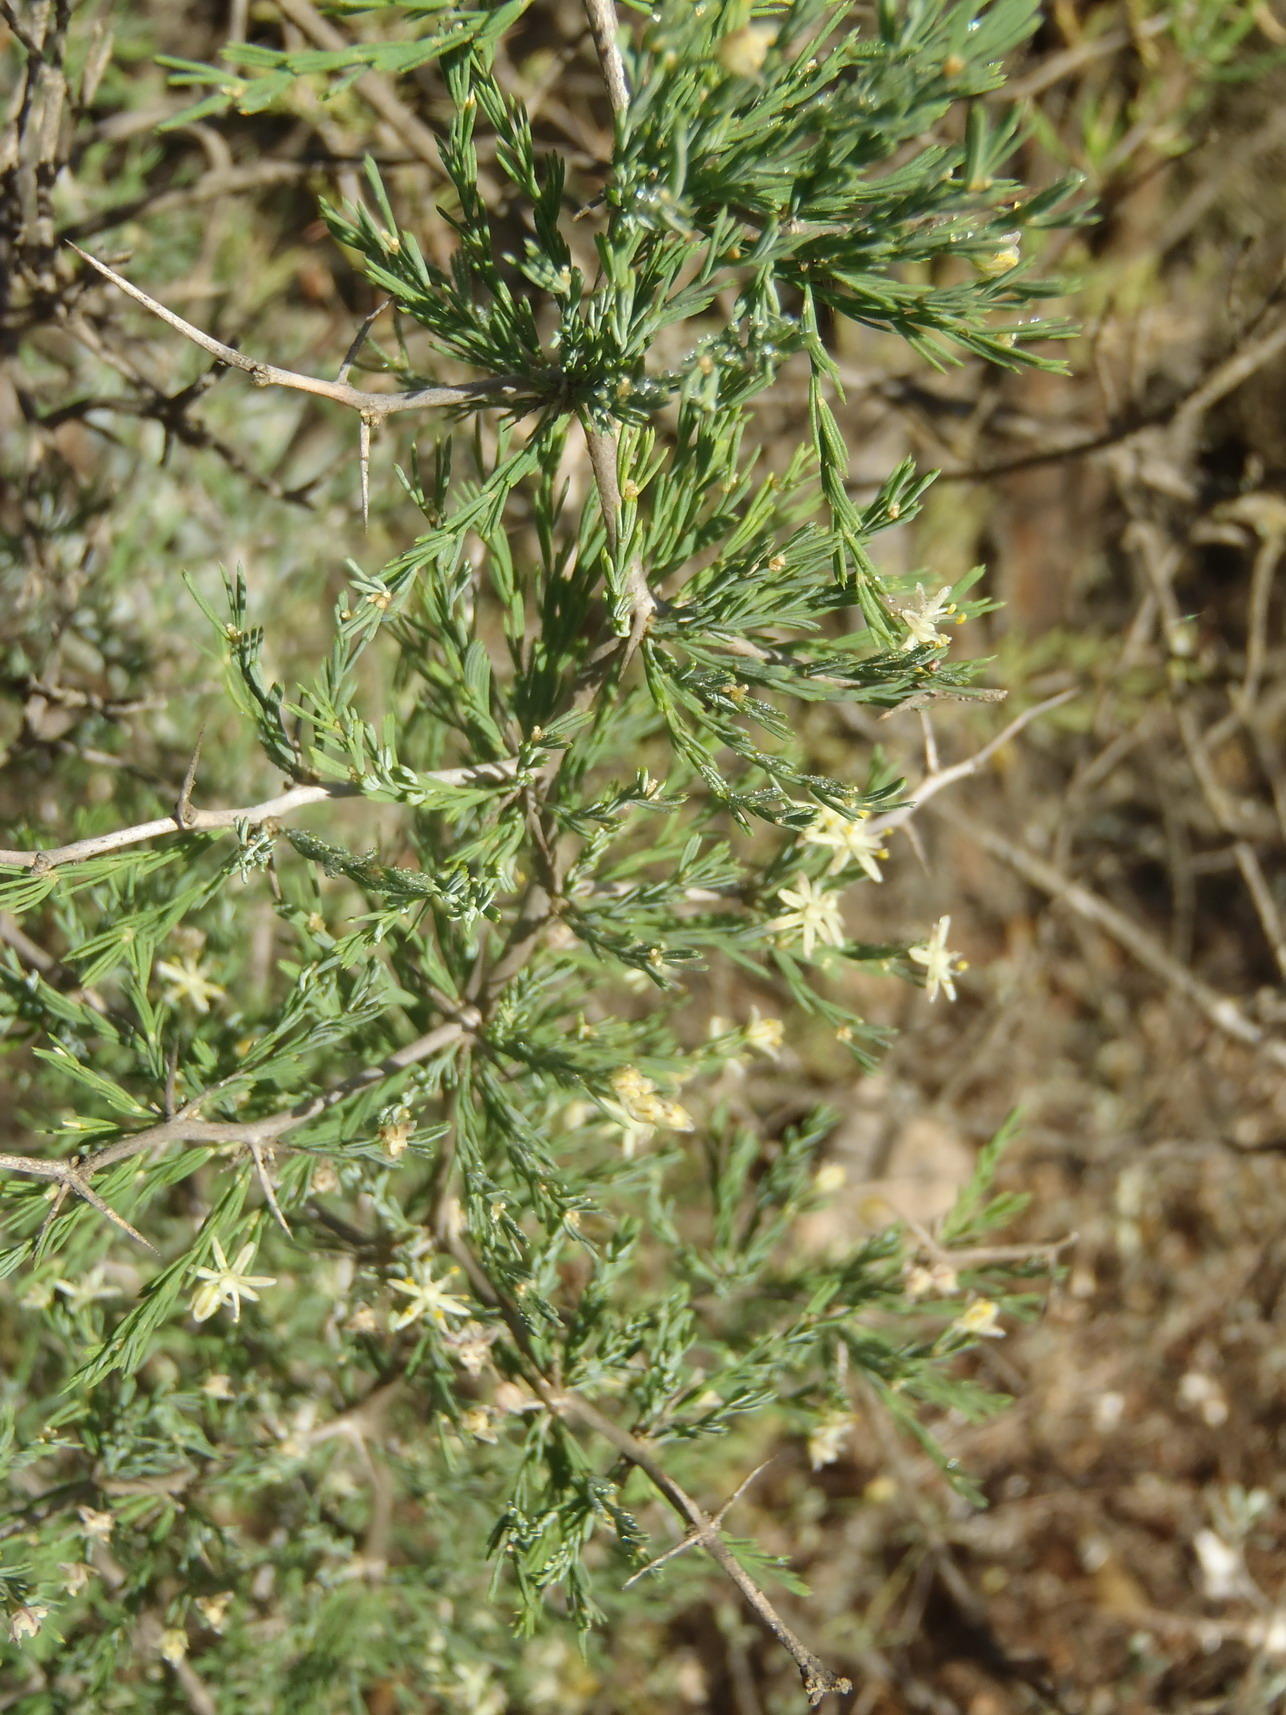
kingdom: Plantae
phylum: Tracheophyta
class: Liliopsida
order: Asparagales
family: Asparagaceae
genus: Asparagus
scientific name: Asparagus capensis
